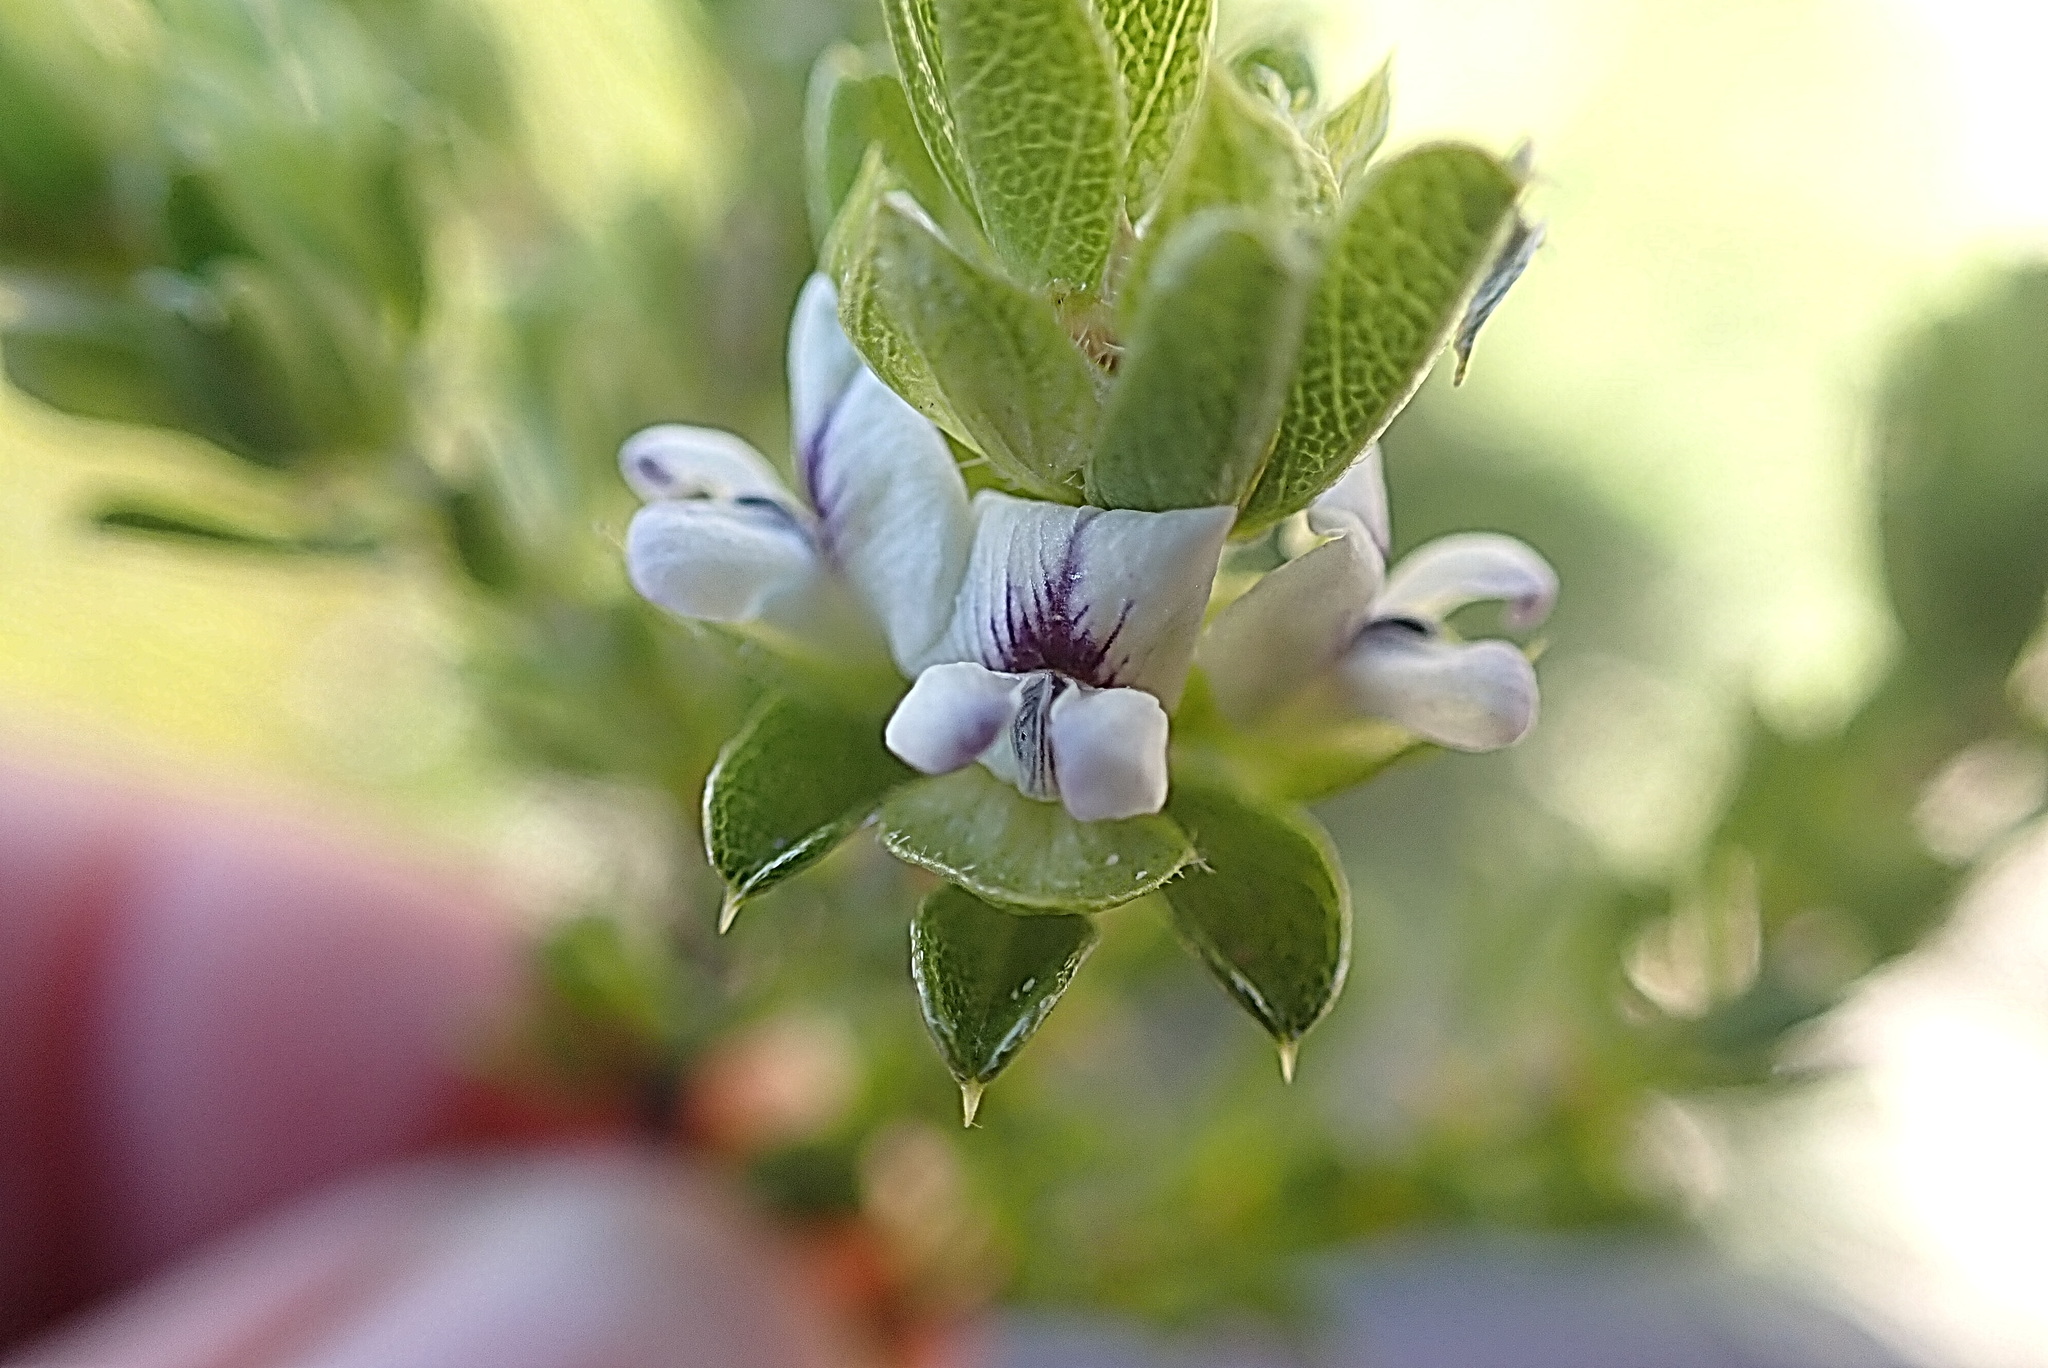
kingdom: Plantae
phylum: Tracheophyta
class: Magnoliopsida
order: Fabales
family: Fabaceae
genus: Psoralea
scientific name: Psoralea heterosepala
